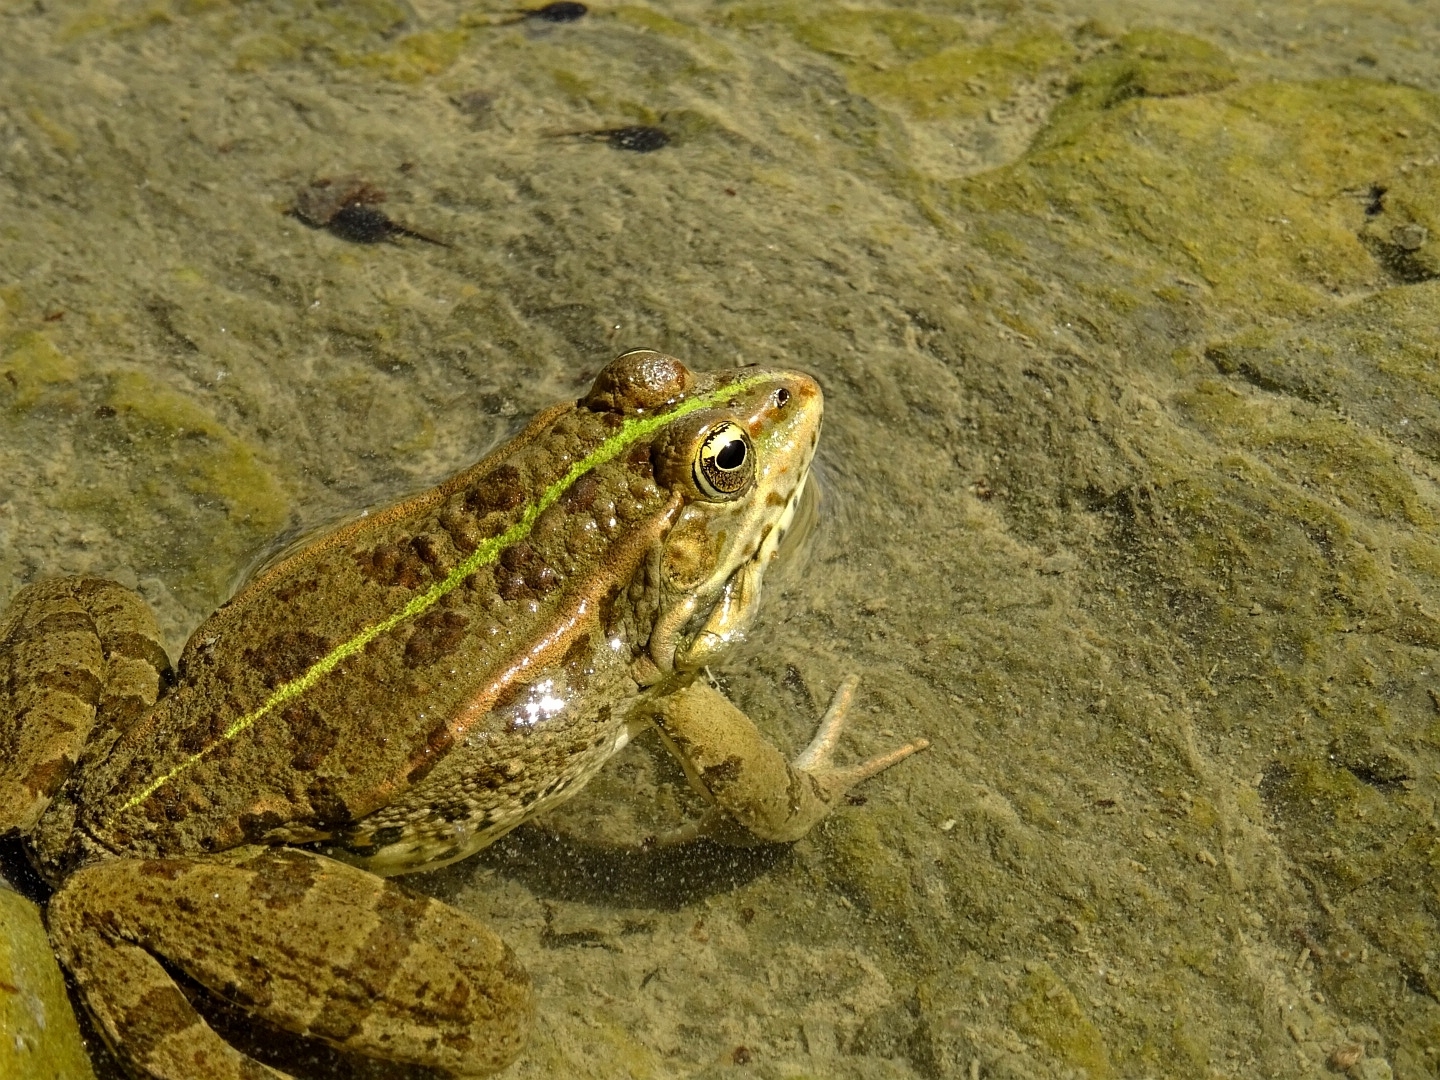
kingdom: Animalia
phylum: Chordata
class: Amphibia
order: Anura
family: Ranidae
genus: Pelophylax
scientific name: Pelophylax ridibundus
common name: Marsh frog
